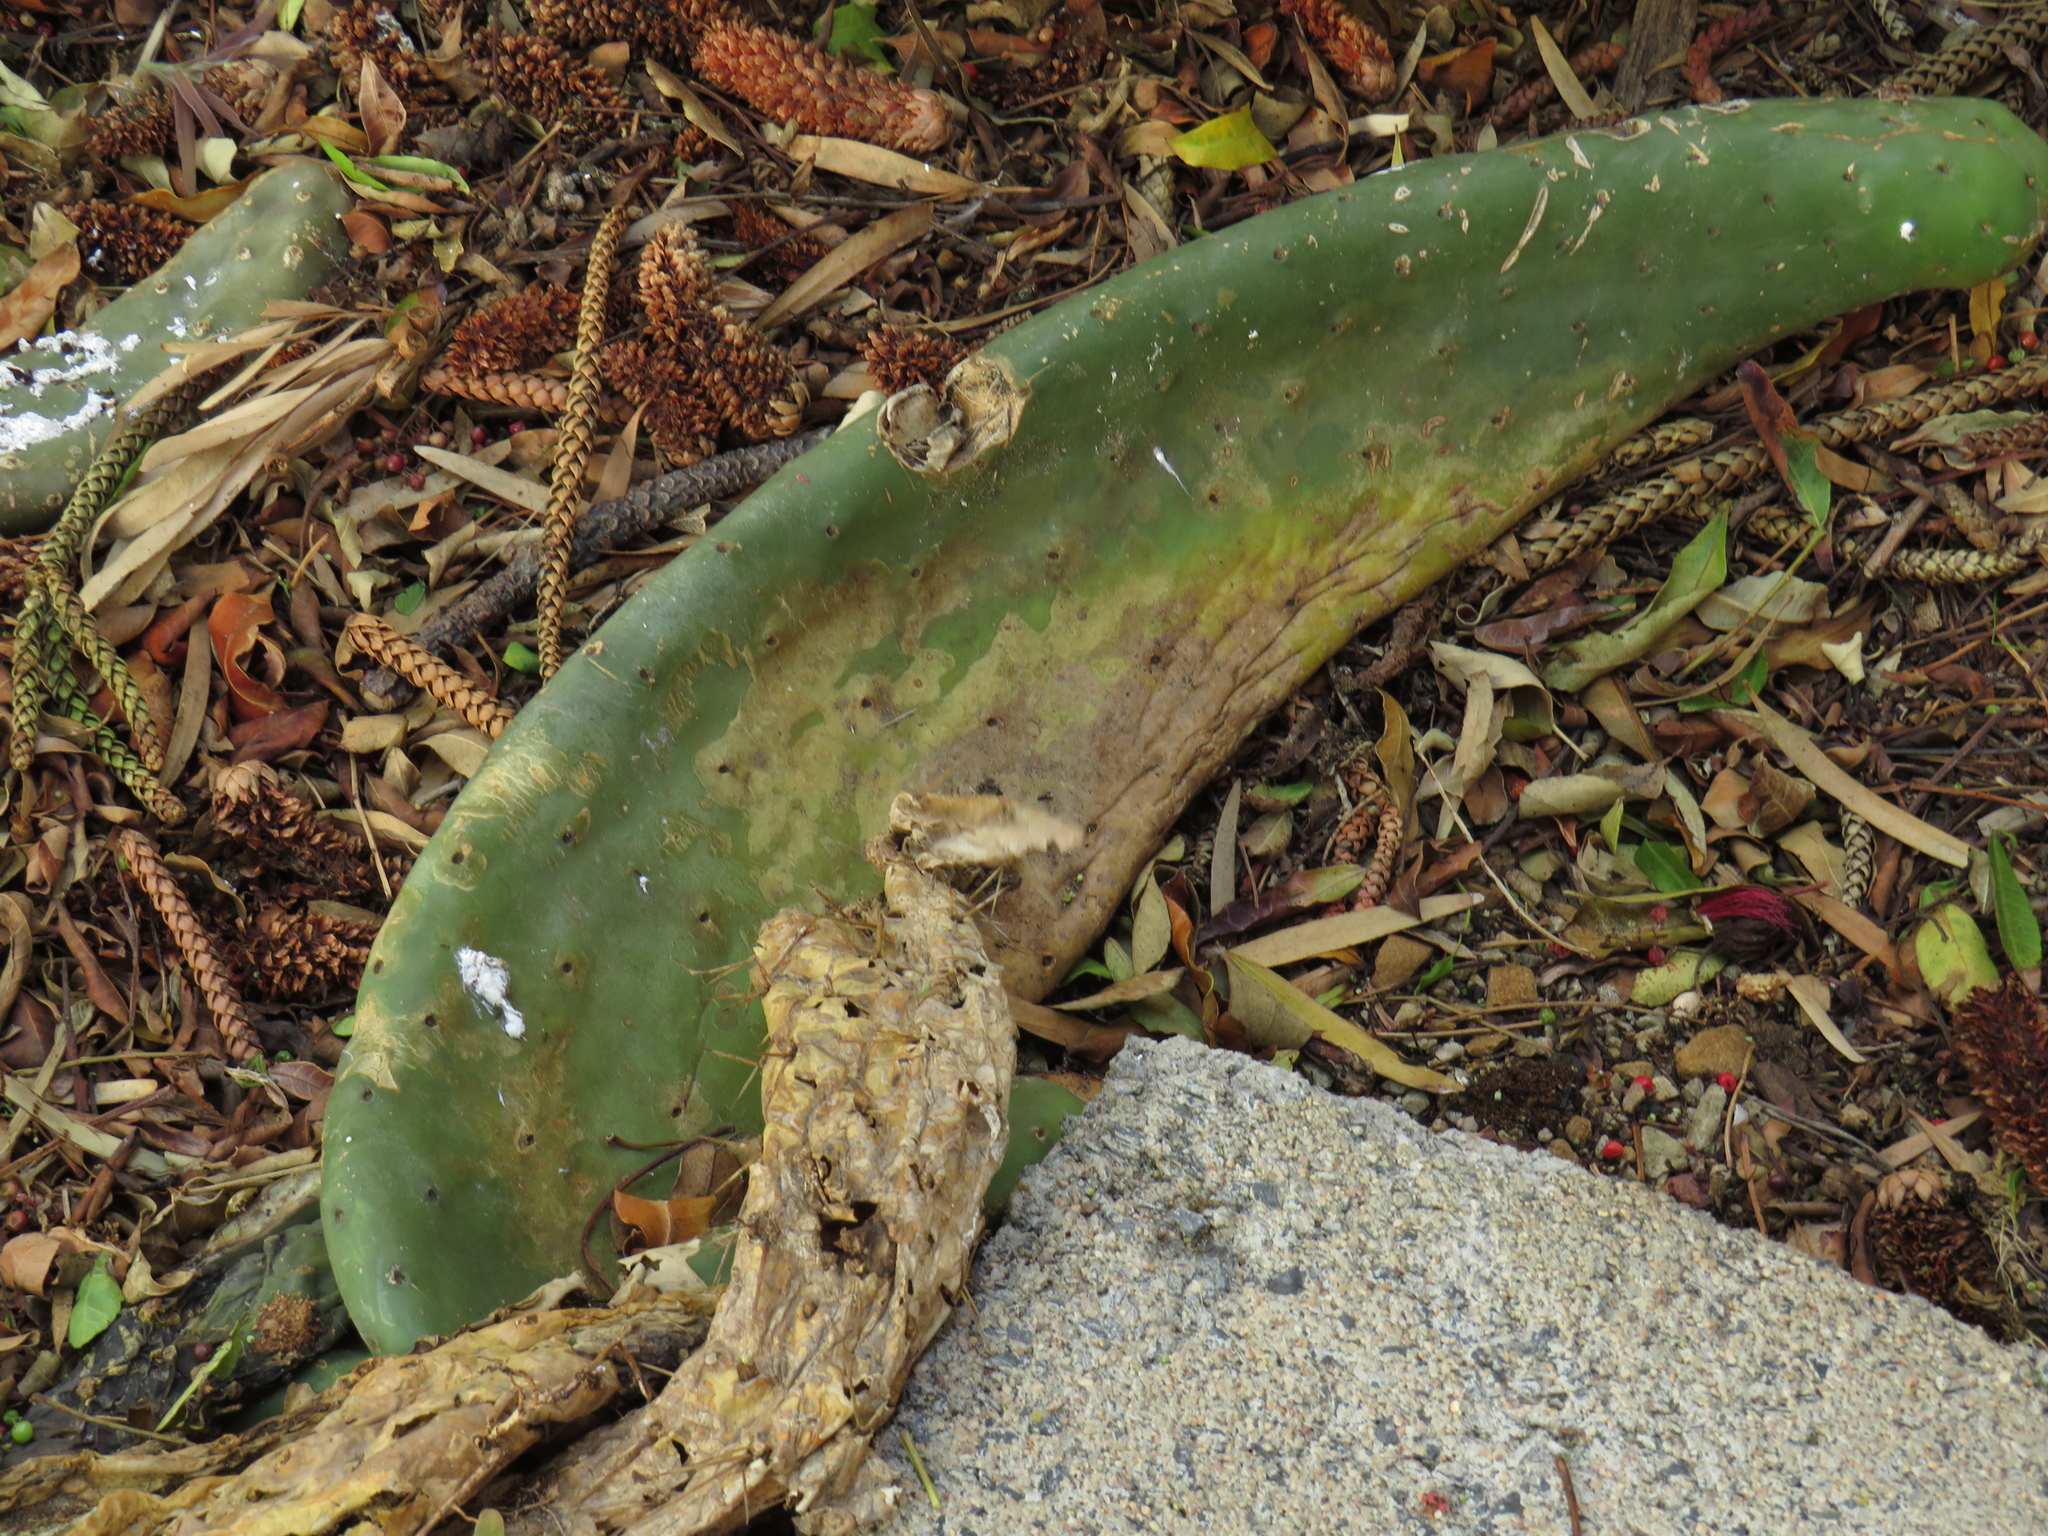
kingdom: Plantae
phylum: Tracheophyta
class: Magnoliopsida
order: Caryophyllales
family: Cactaceae
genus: Opuntia
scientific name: Opuntia ficus-indica
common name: Barbary fig
